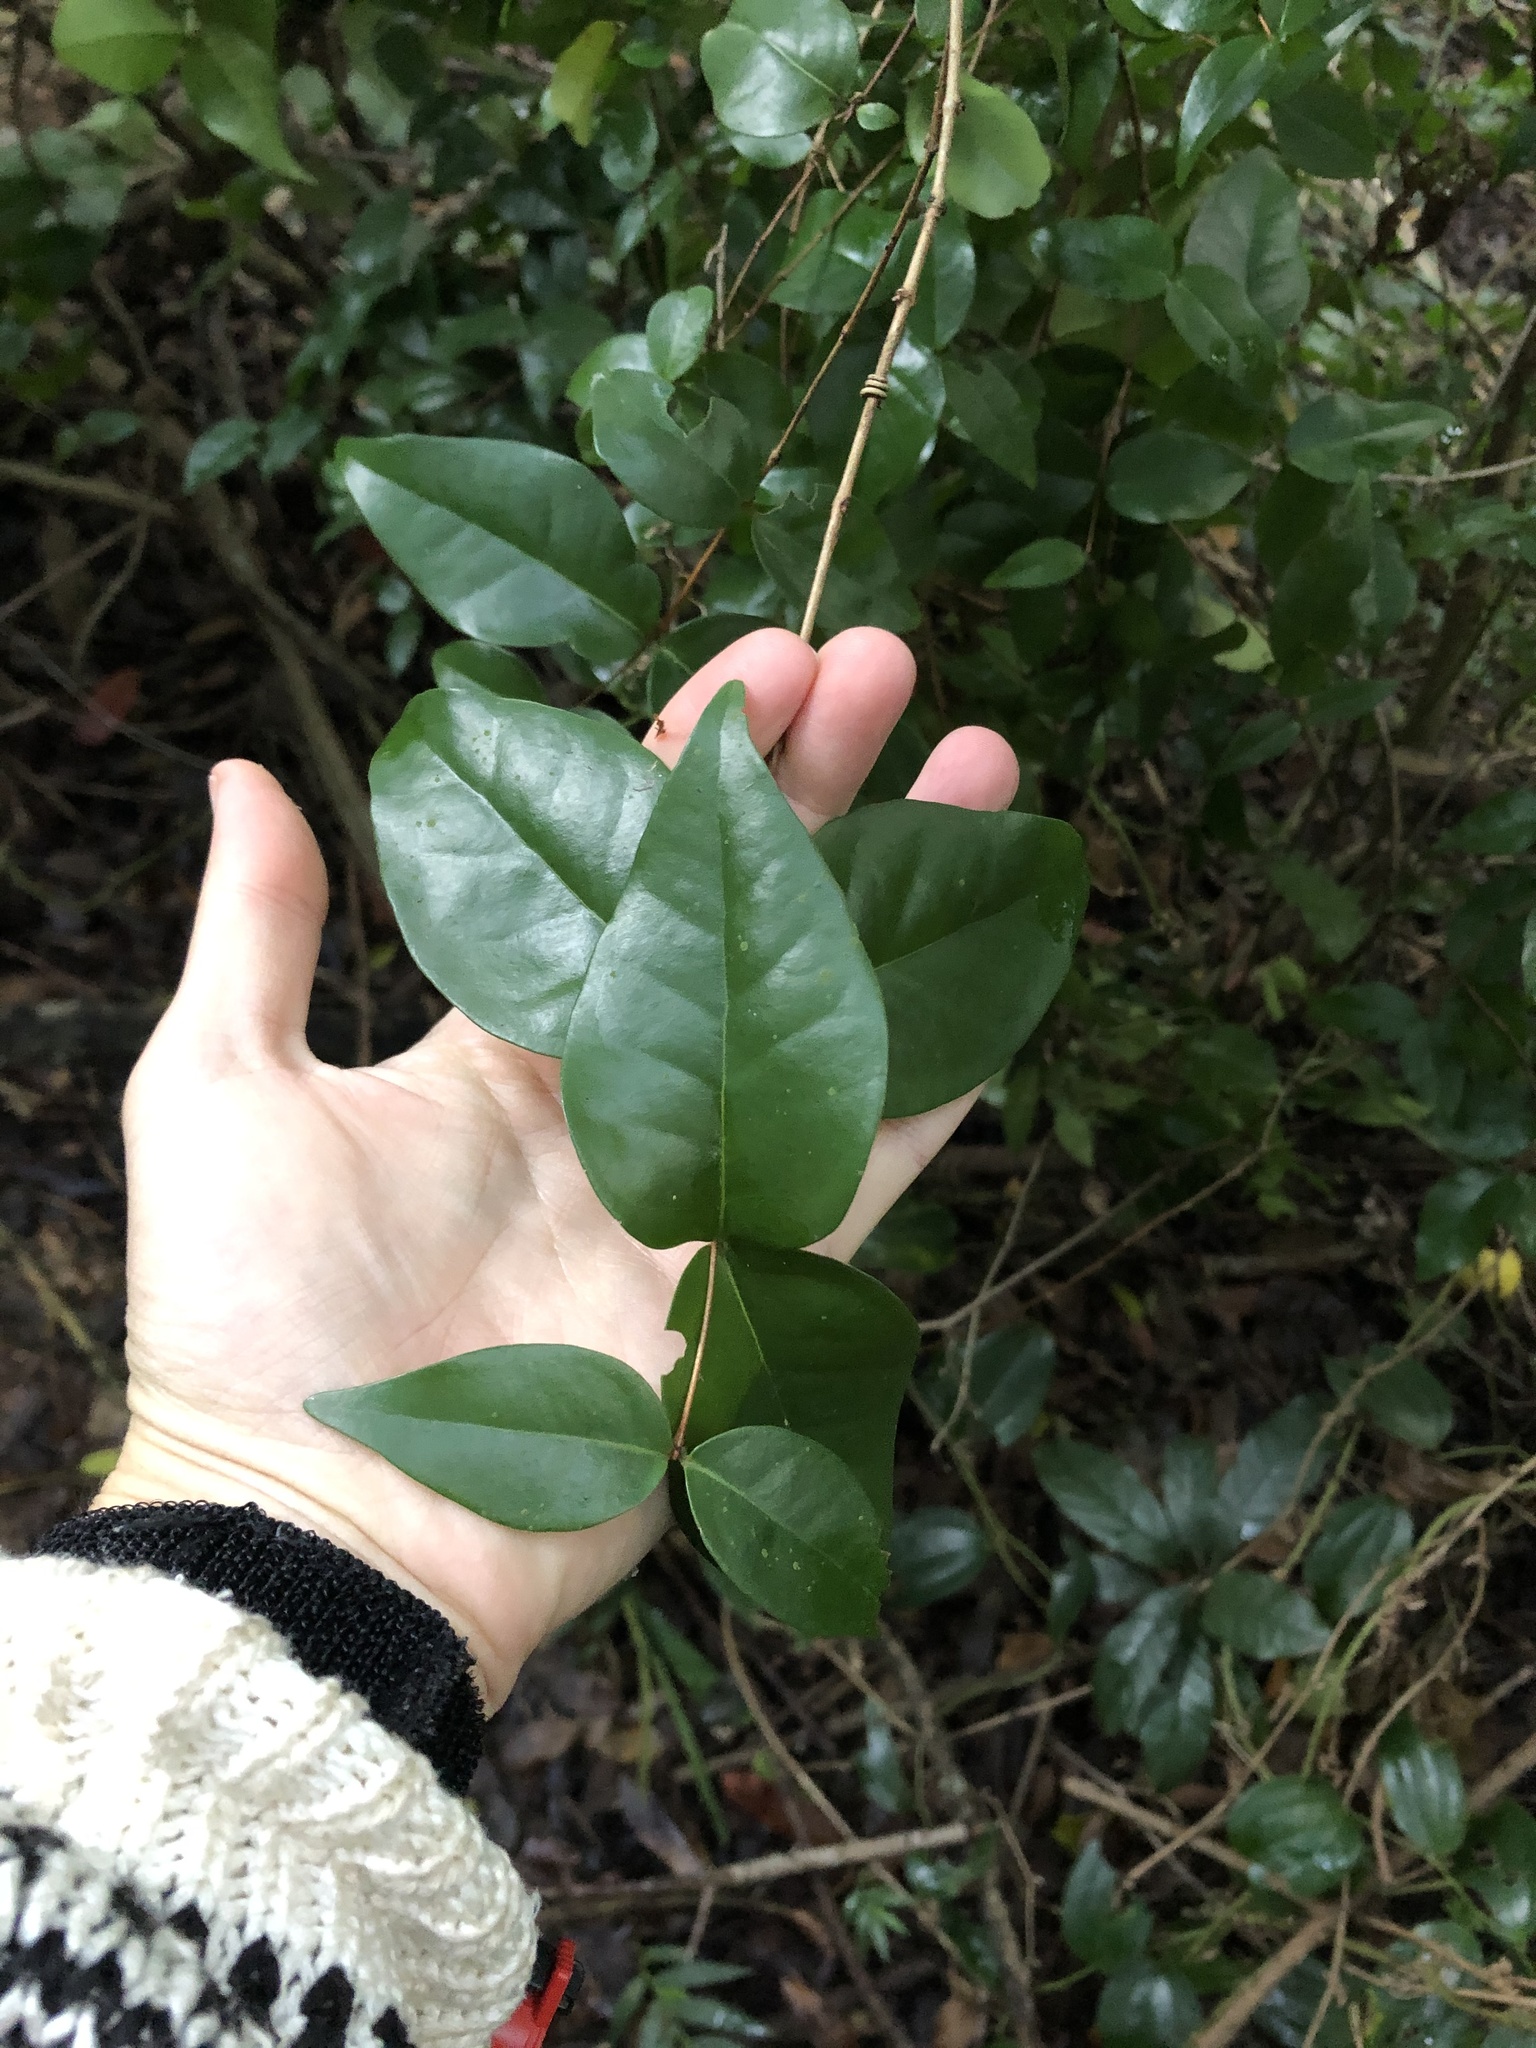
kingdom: Plantae
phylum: Tracheophyta
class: Magnoliopsida
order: Myrtales
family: Myrtaceae
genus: Eugenia
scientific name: Eugenia uniflora
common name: Surinam cherry
